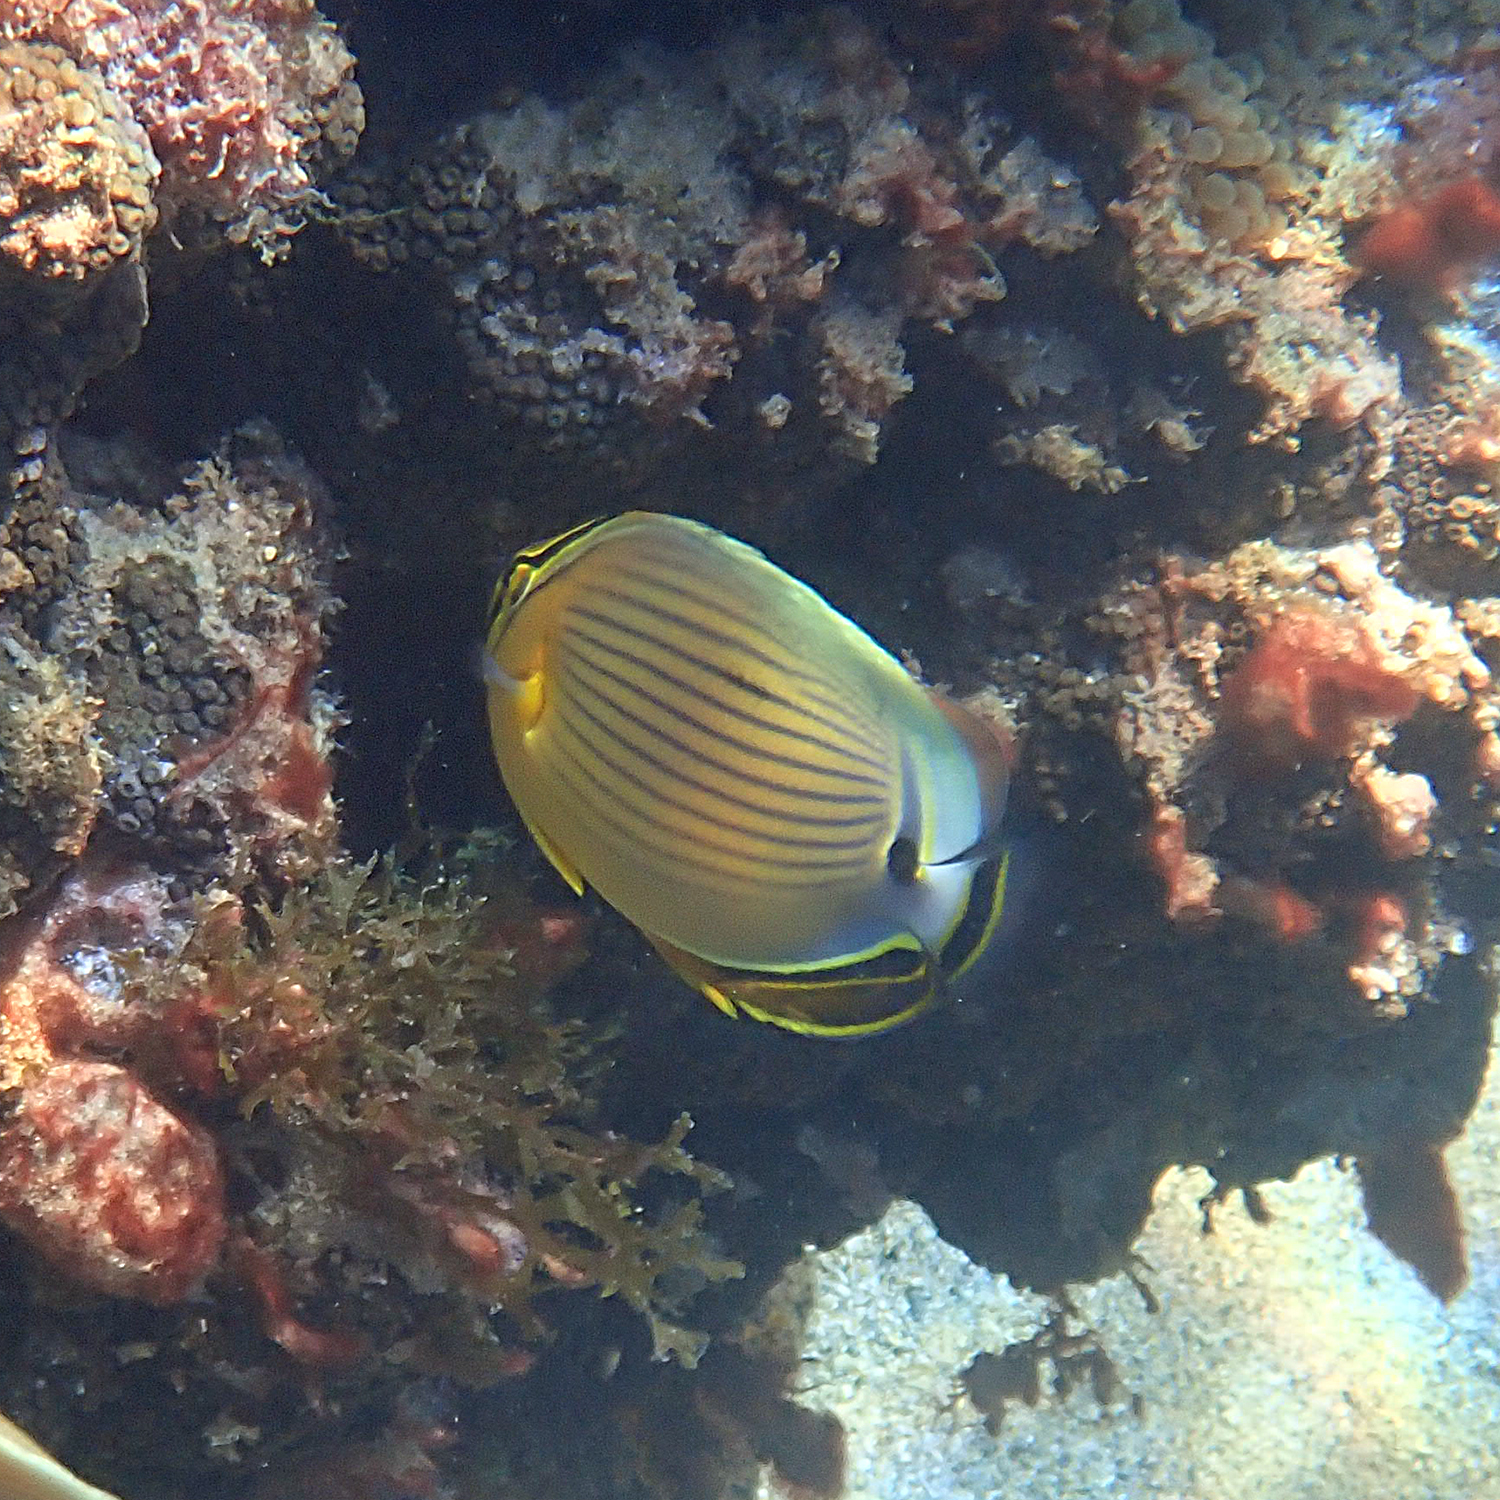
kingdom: Animalia
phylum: Chordata
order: Perciformes
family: Chaetodontidae
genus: Chaetodon
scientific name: Chaetodon lunulatus
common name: Redfin butterflyfish
